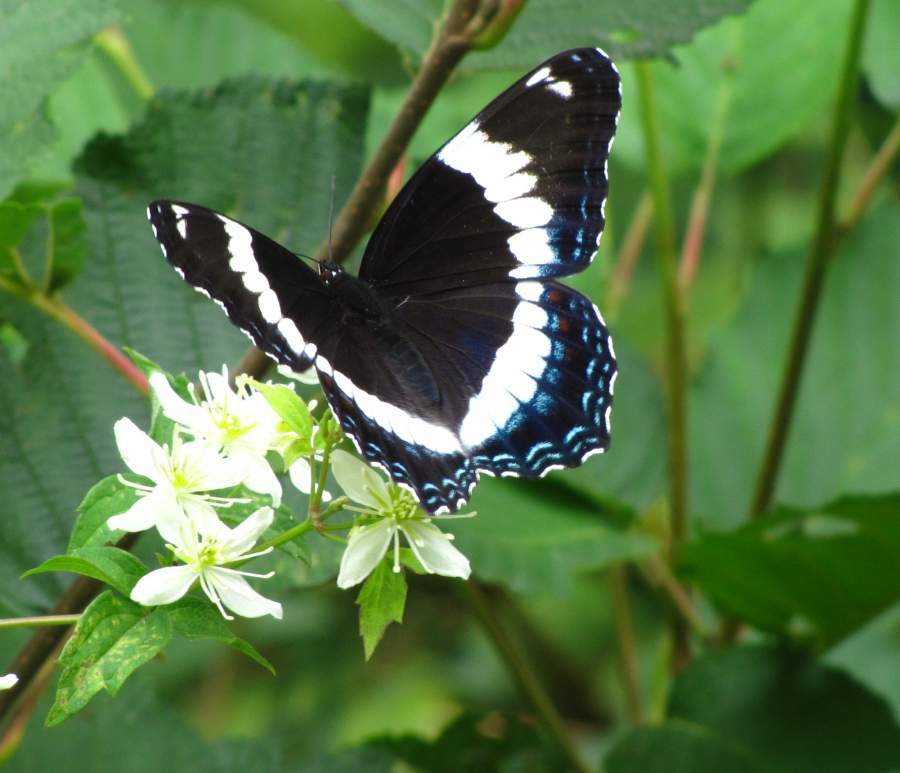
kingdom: Animalia
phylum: Arthropoda
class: Insecta
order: Lepidoptera
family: Nymphalidae
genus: Limenitis
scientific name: Limenitis arthemis
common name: Red-spotted admiral
